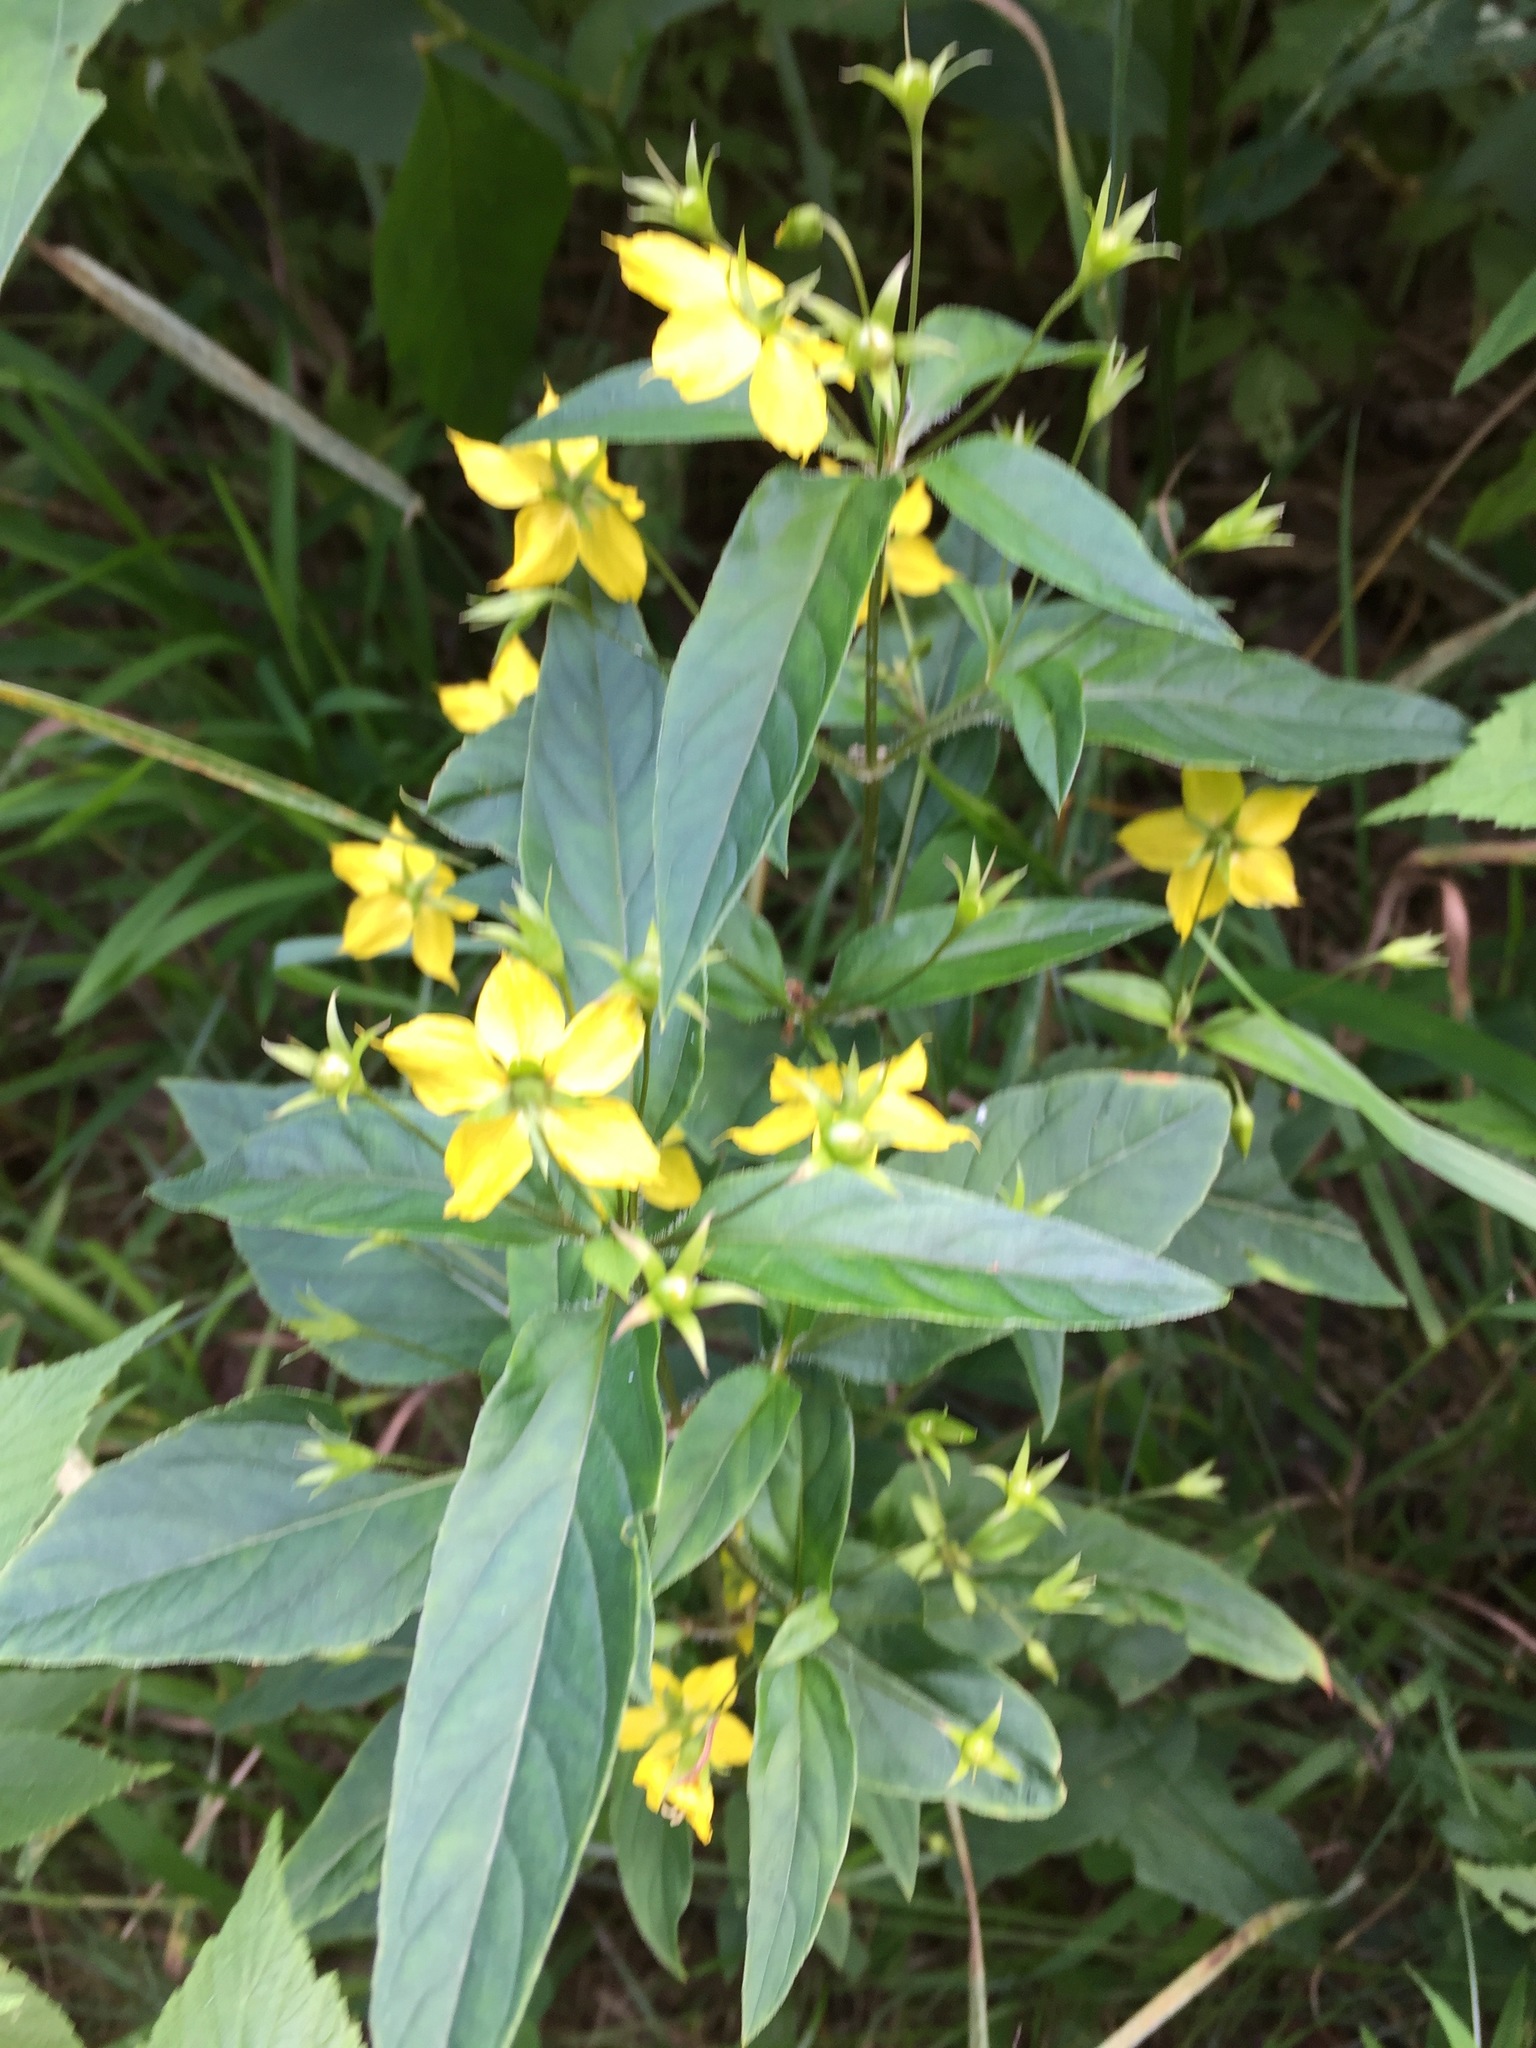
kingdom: Plantae
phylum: Tracheophyta
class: Magnoliopsida
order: Ericales
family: Primulaceae
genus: Lysimachia
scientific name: Lysimachia ciliata
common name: Fringed loosestrife
